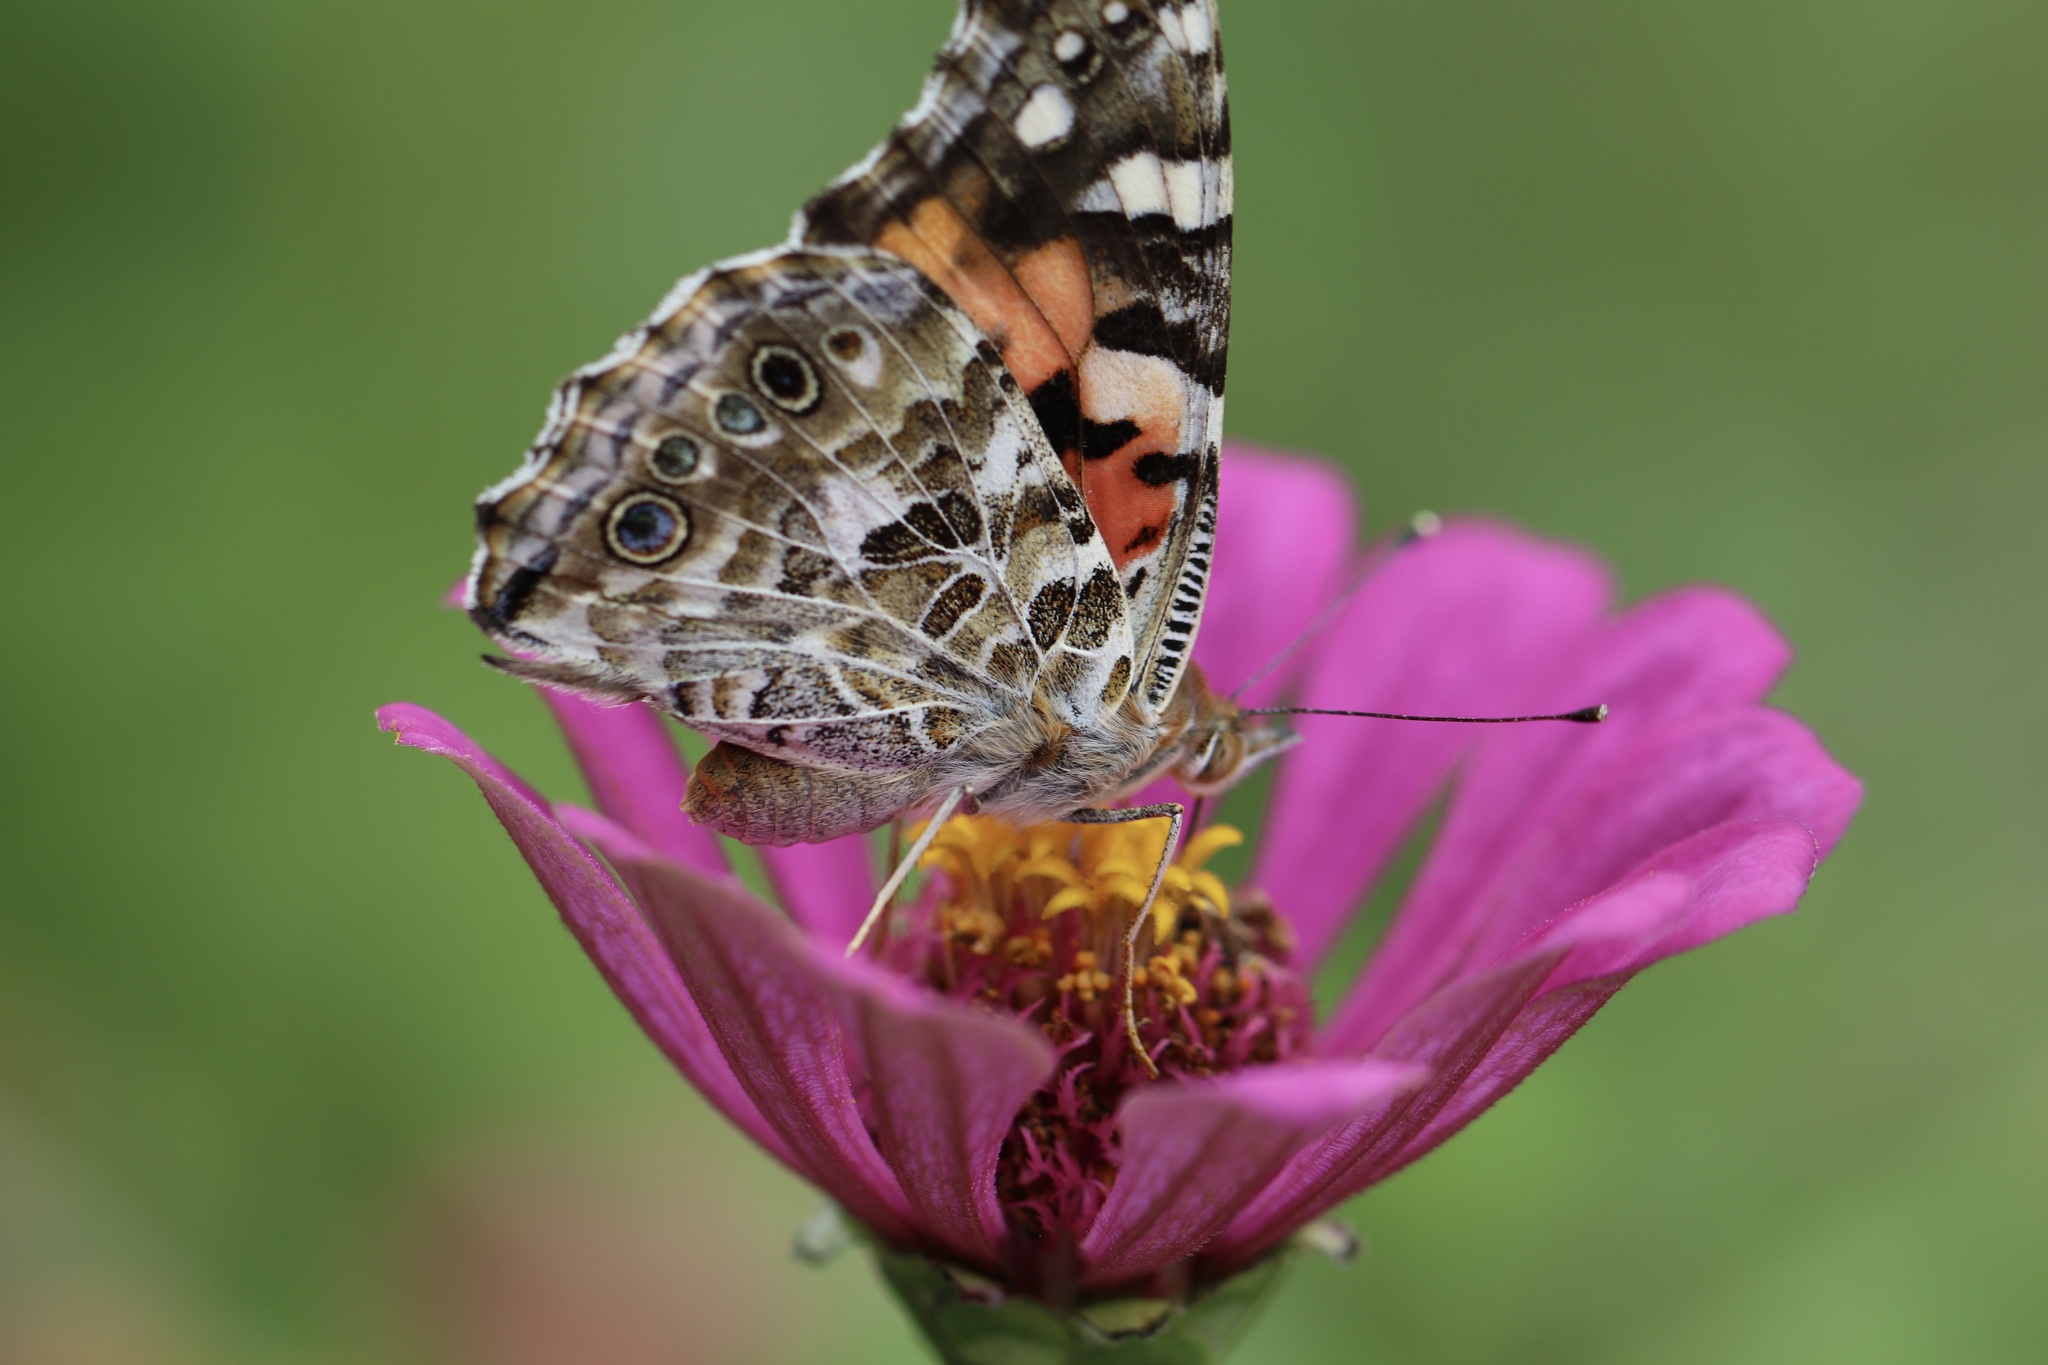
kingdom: Animalia
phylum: Arthropoda
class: Insecta
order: Lepidoptera
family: Nymphalidae
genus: Vanessa
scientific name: Vanessa cardui
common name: Painted lady
